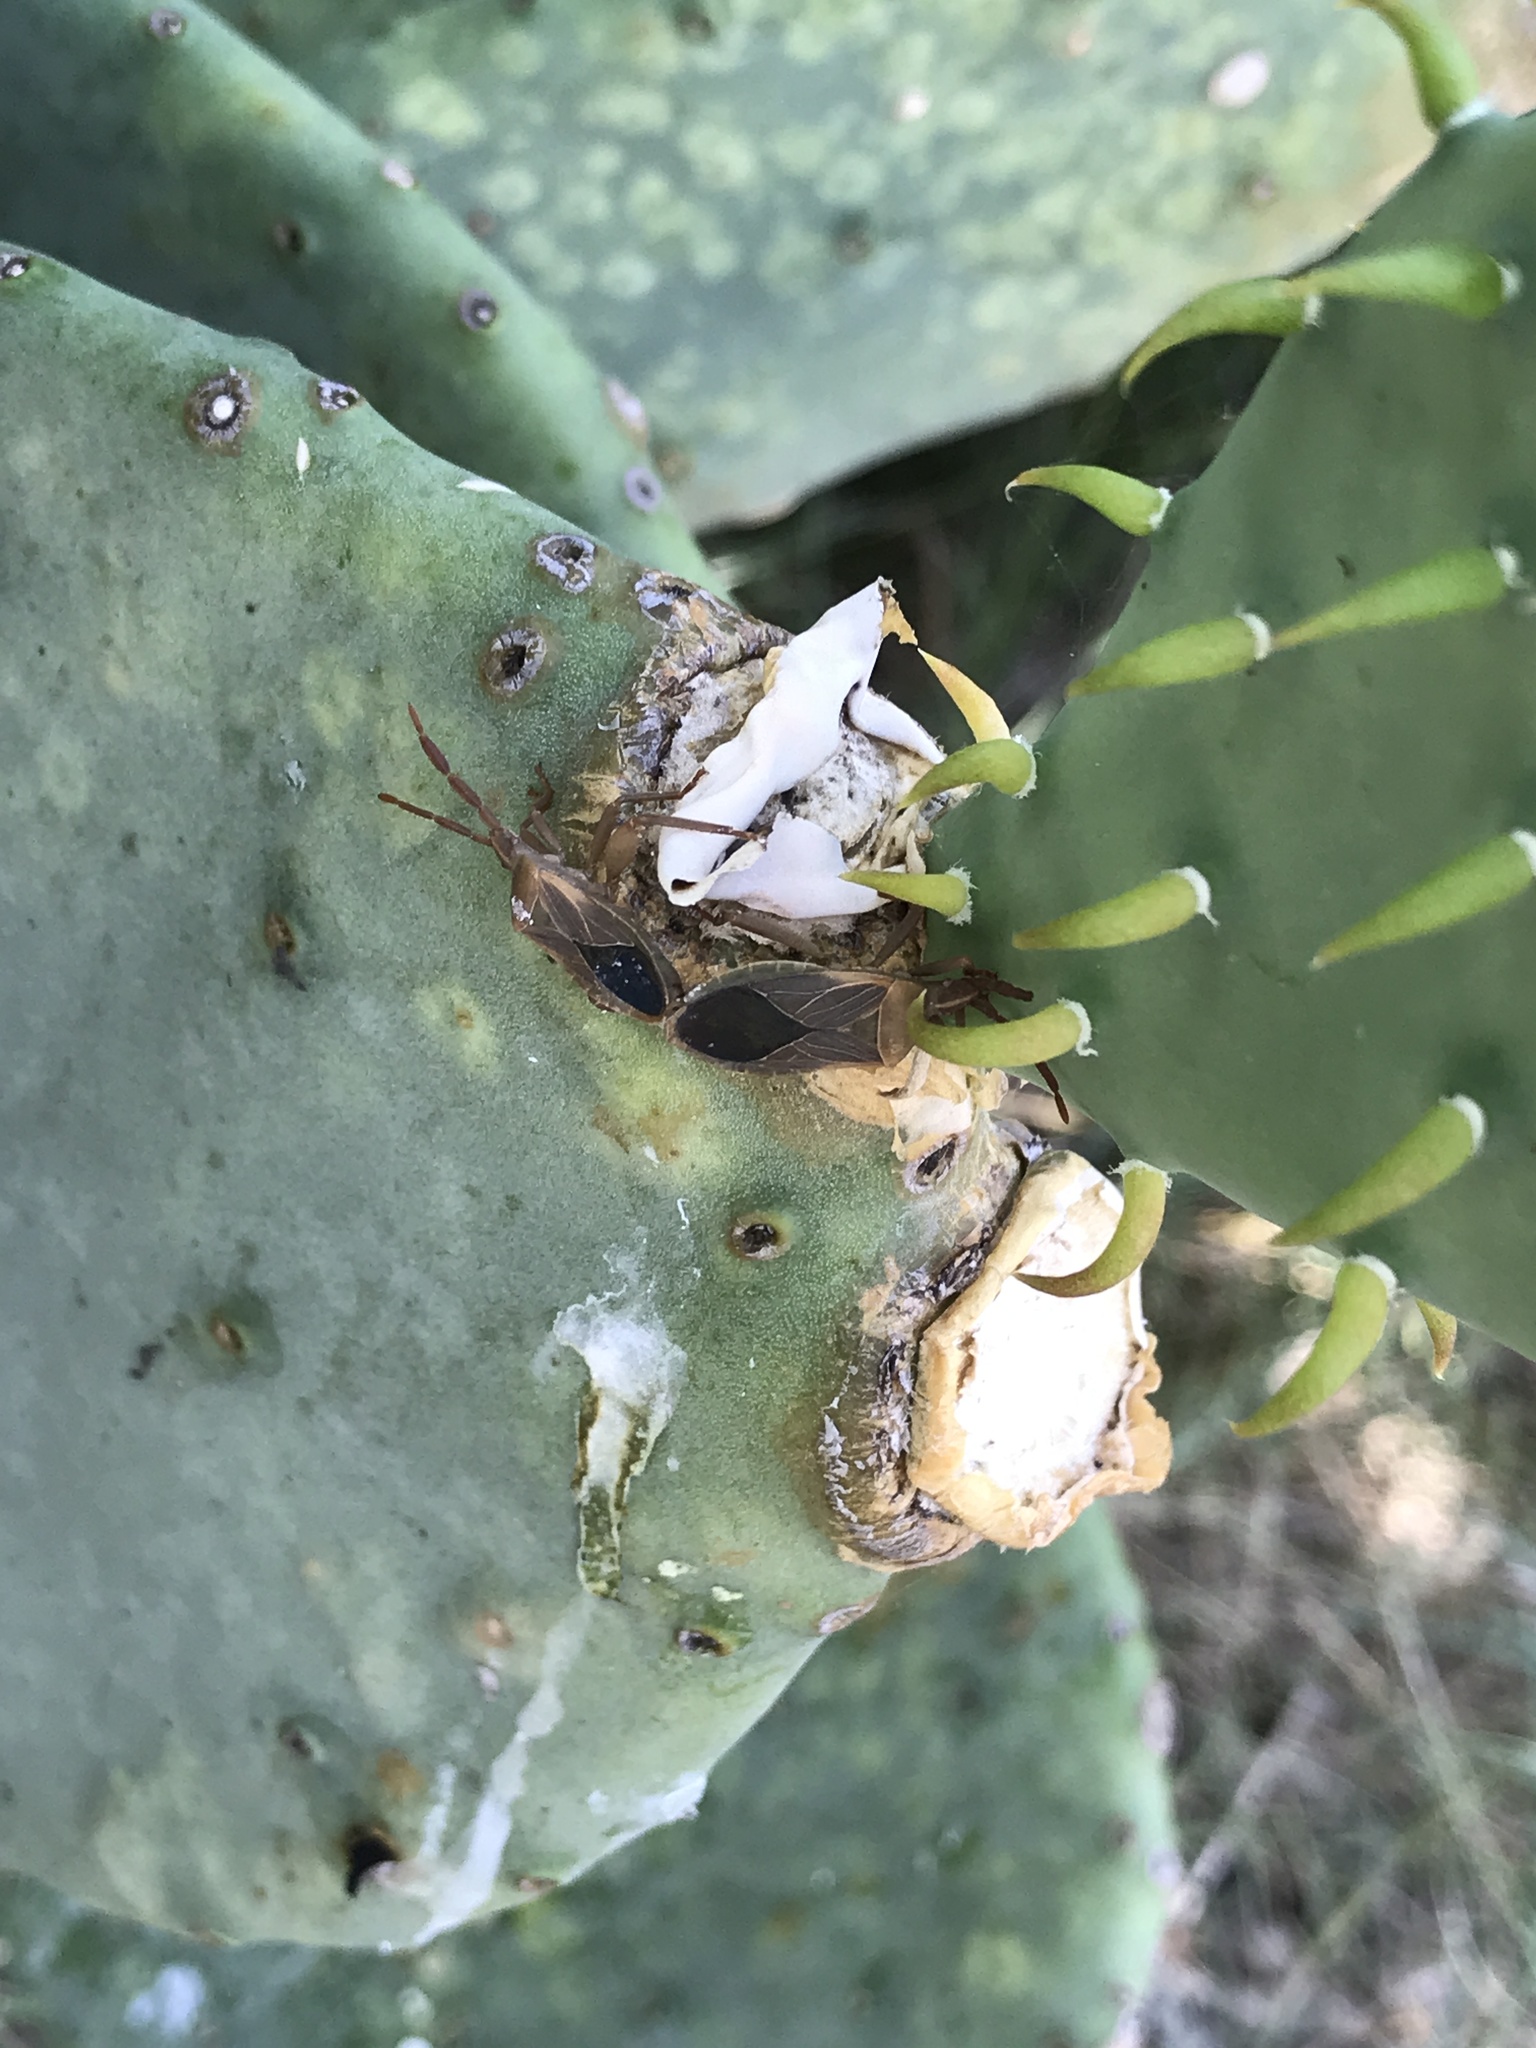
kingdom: Animalia
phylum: Arthropoda
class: Insecta
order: Hemiptera
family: Coreidae
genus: Chelinidea
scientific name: Chelinidea vittiger
